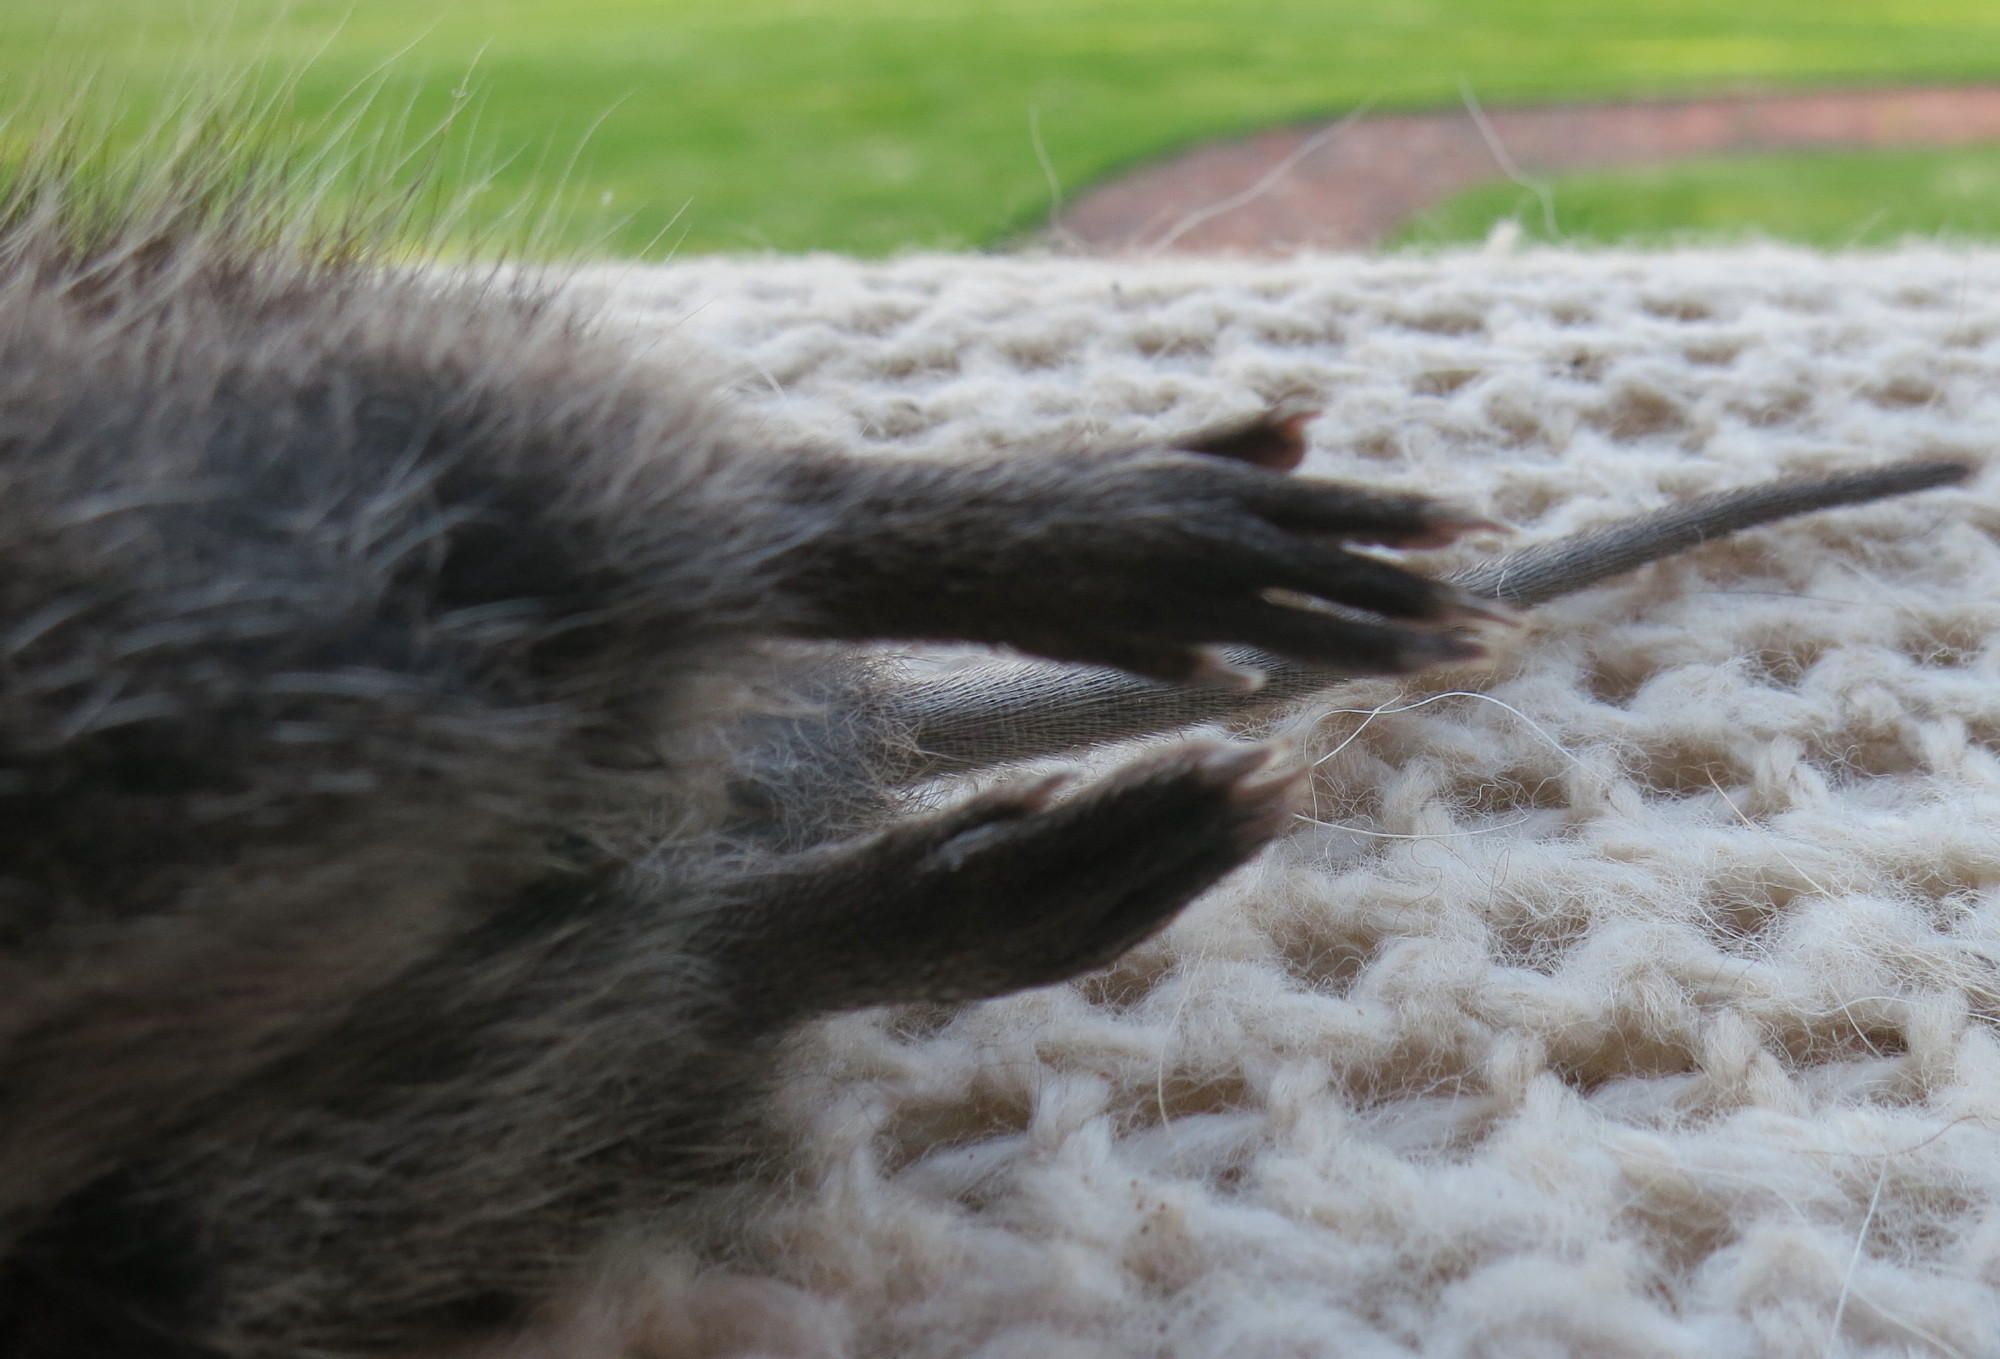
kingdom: Animalia
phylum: Chordata
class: Mammalia
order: Rodentia
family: Muridae
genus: Otomys
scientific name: Otomys irroratus
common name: Southern african vlei rat
